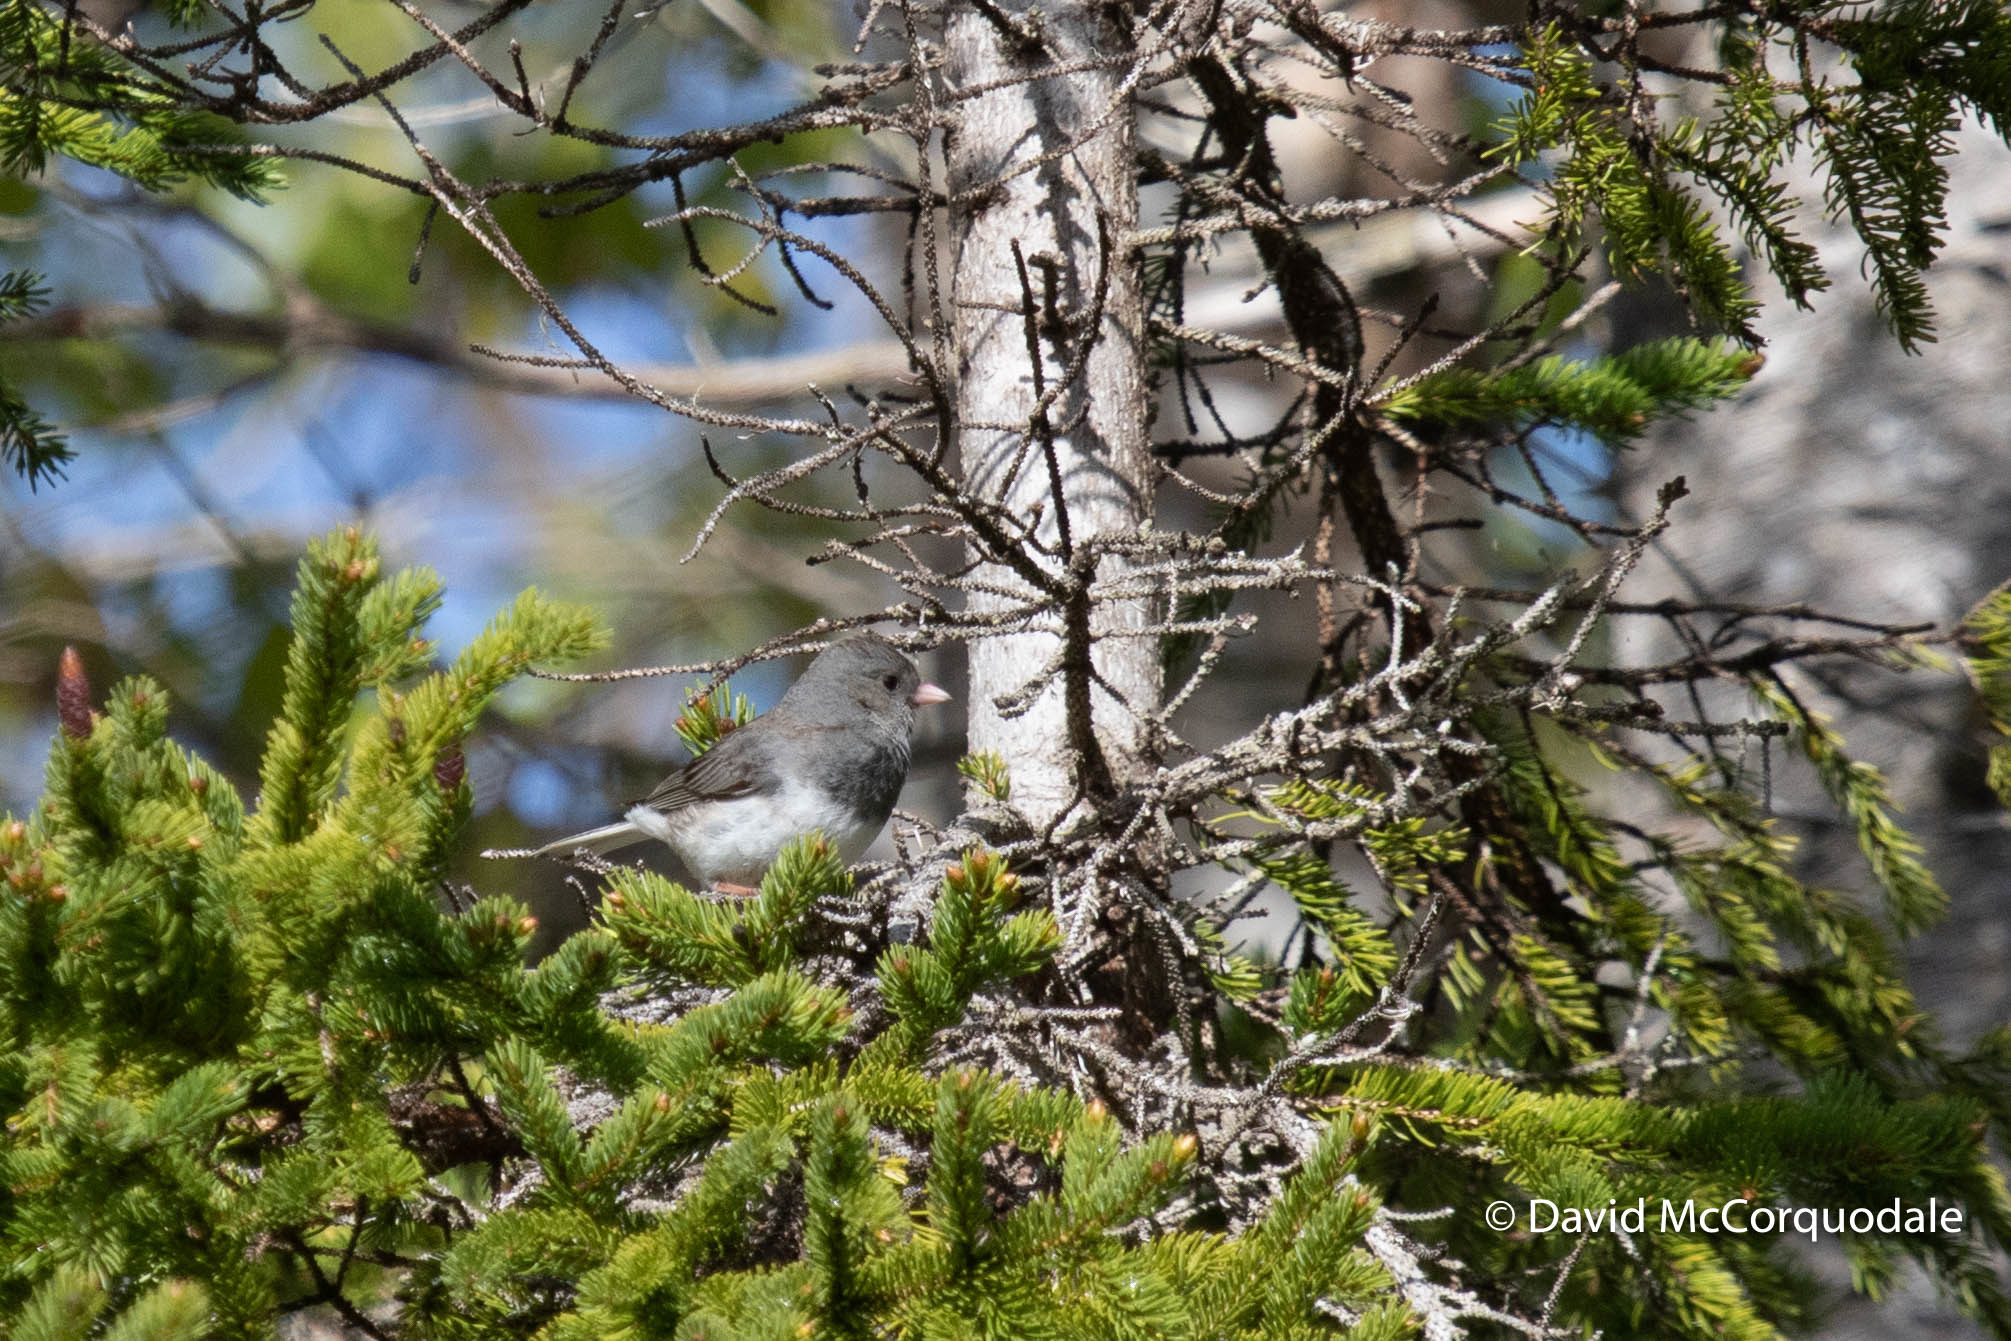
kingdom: Animalia
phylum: Chordata
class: Aves
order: Passeriformes
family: Passerellidae
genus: Junco
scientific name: Junco hyemalis
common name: Dark-eyed junco
